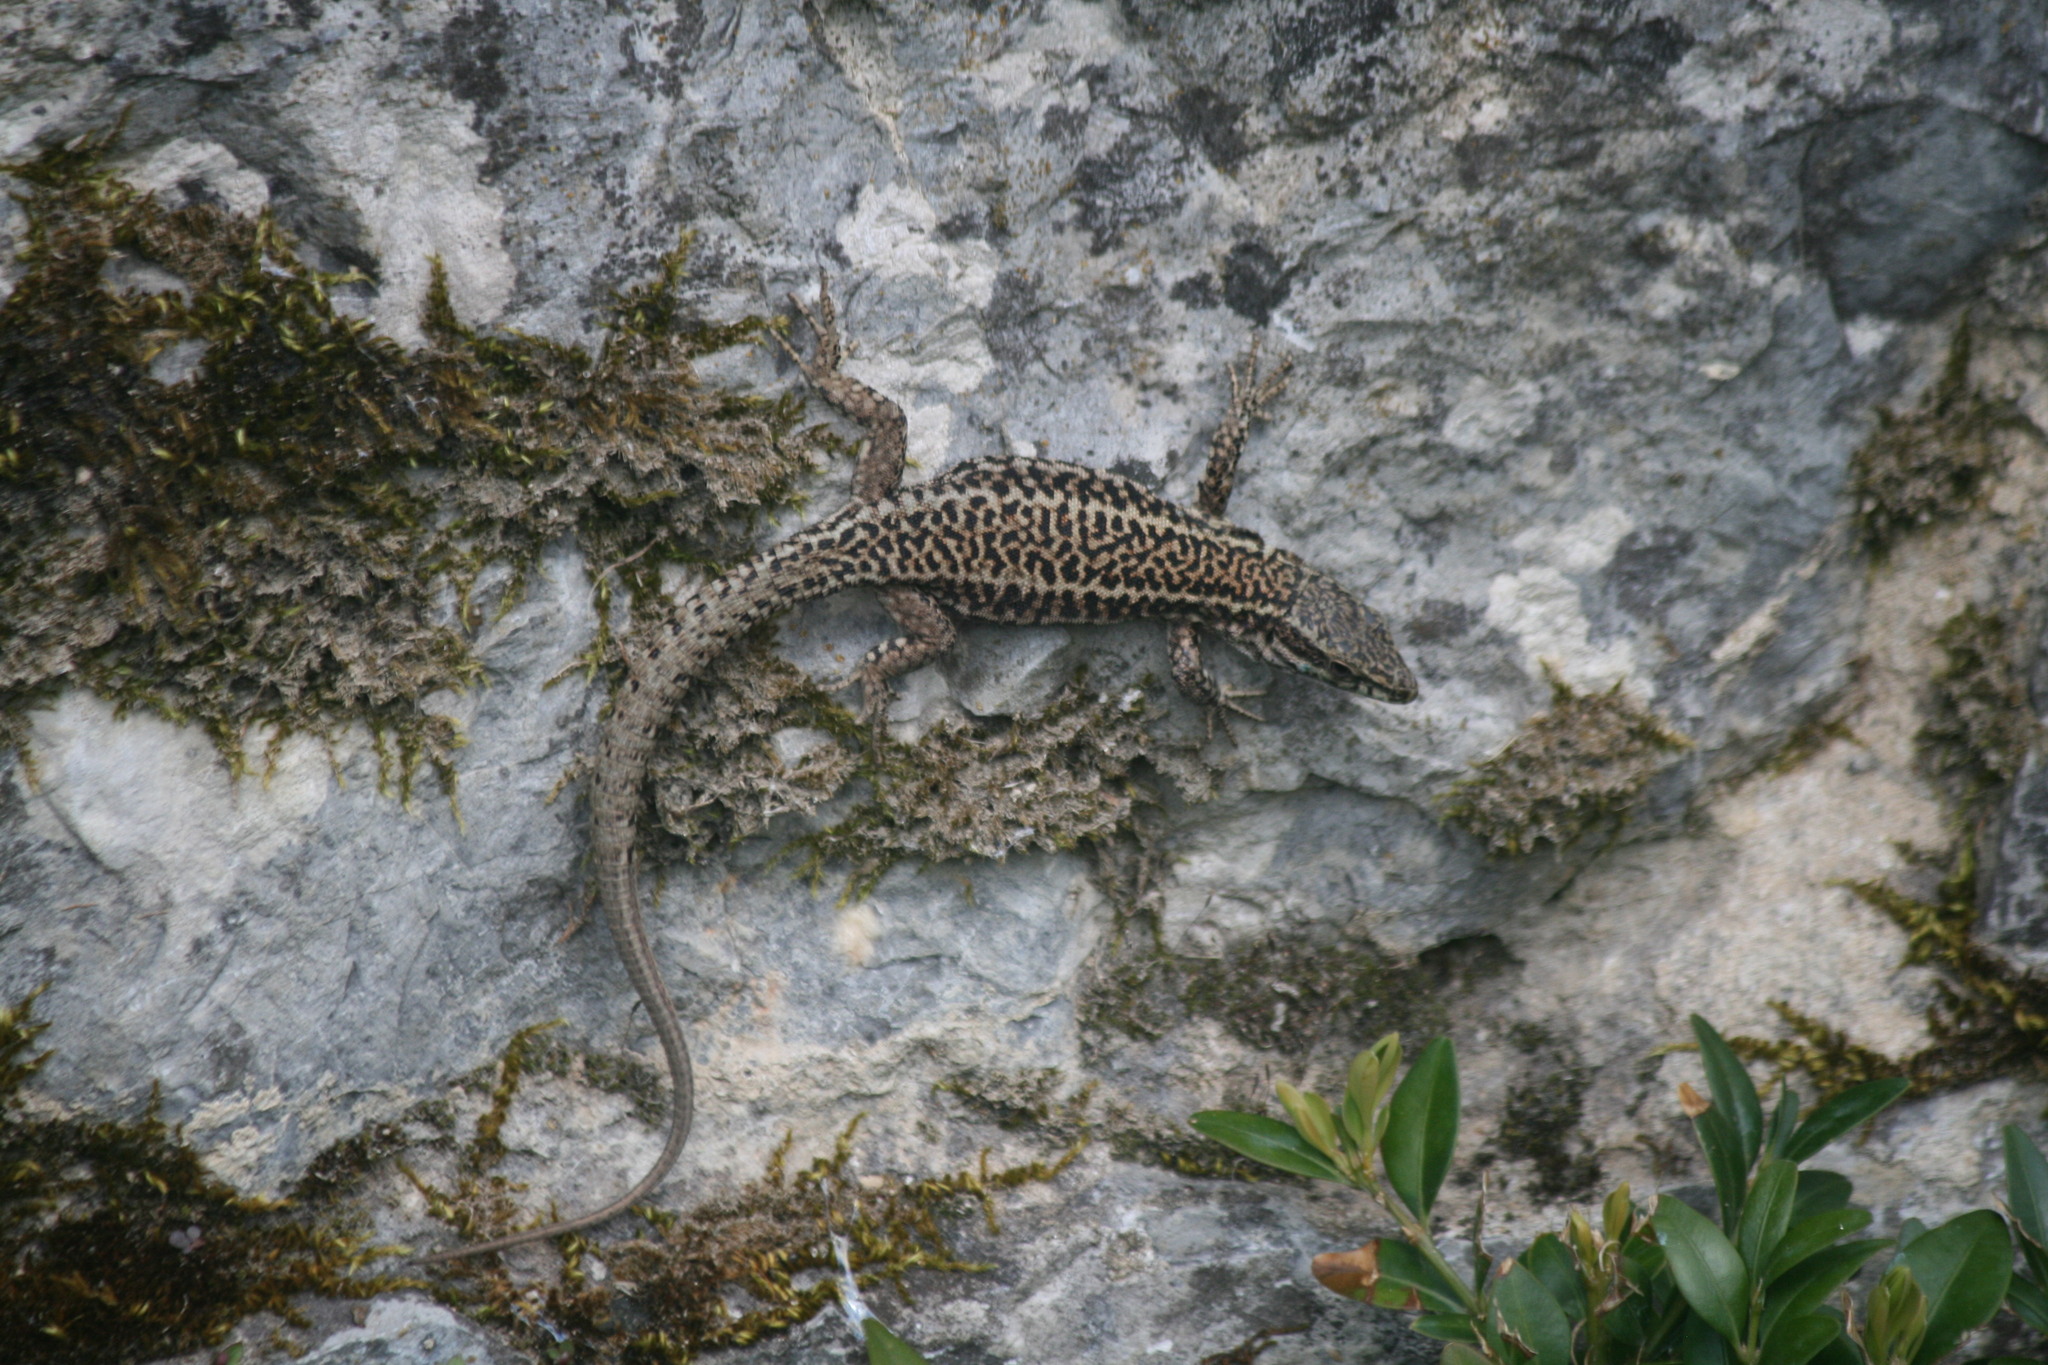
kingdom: Animalia
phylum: Chordata
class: Squamata
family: Lacertidae
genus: Podarcis
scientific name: Podarcis muralis
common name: Common wall lizard
